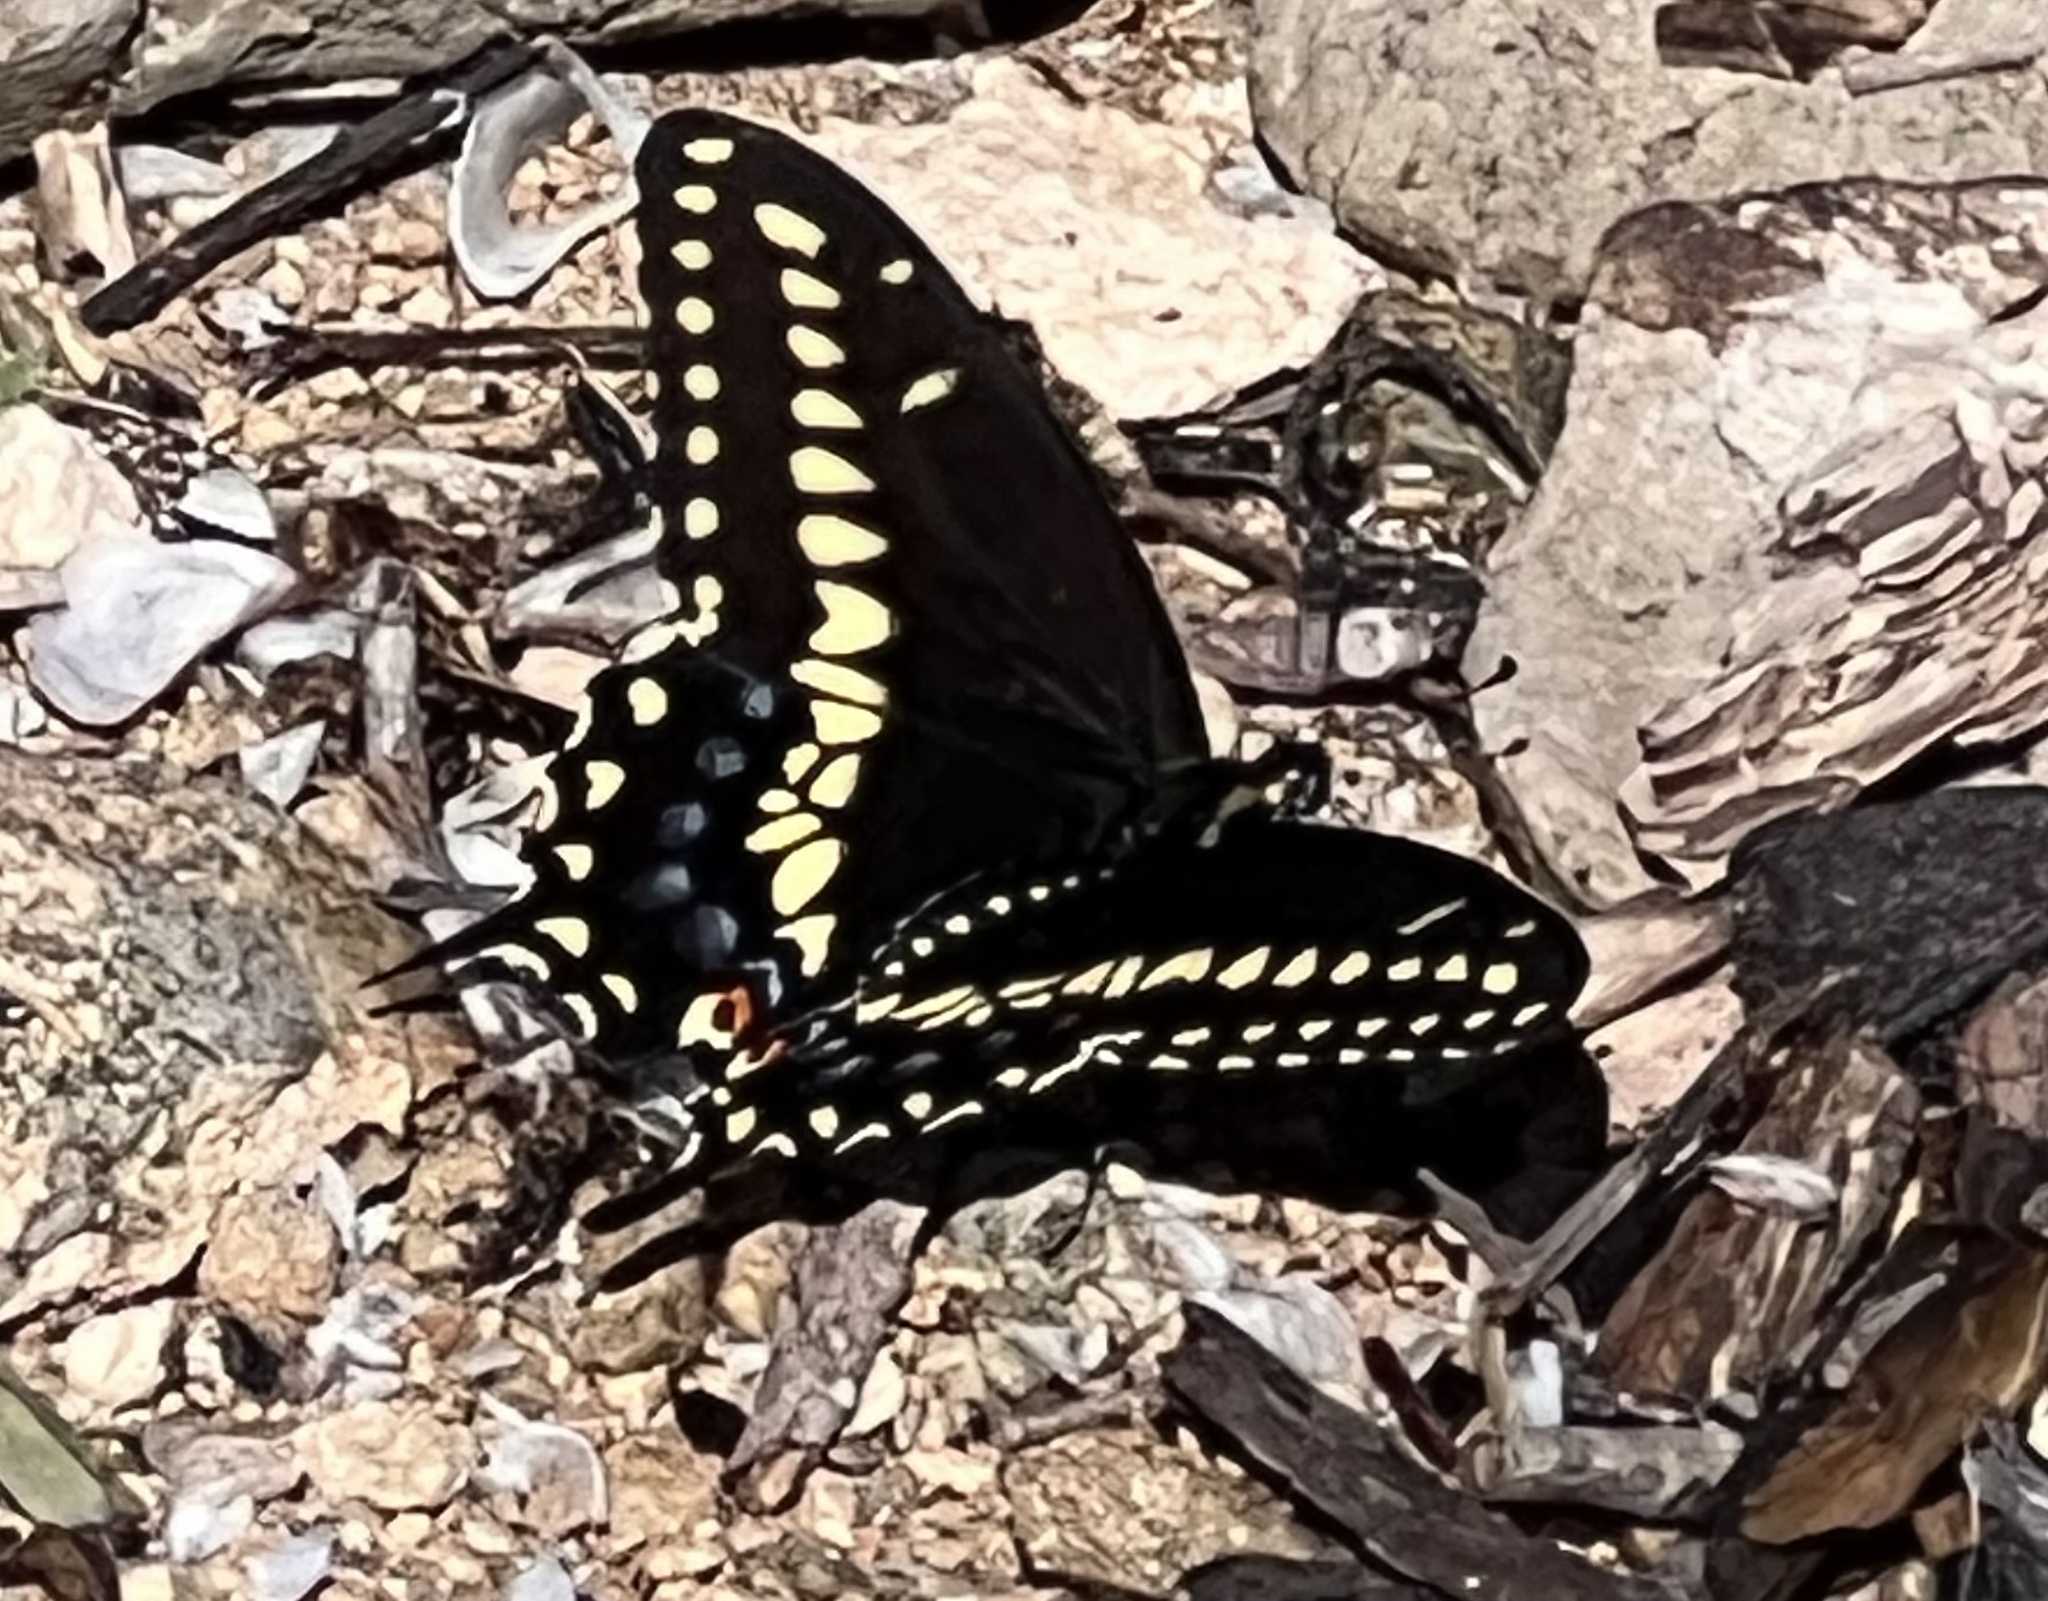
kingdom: Animalia
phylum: Arthropoda
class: Insecta
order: Lepidoptera
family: Papilionidae
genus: Papilio
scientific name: Papilio polyxenes
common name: Black swallowtail
